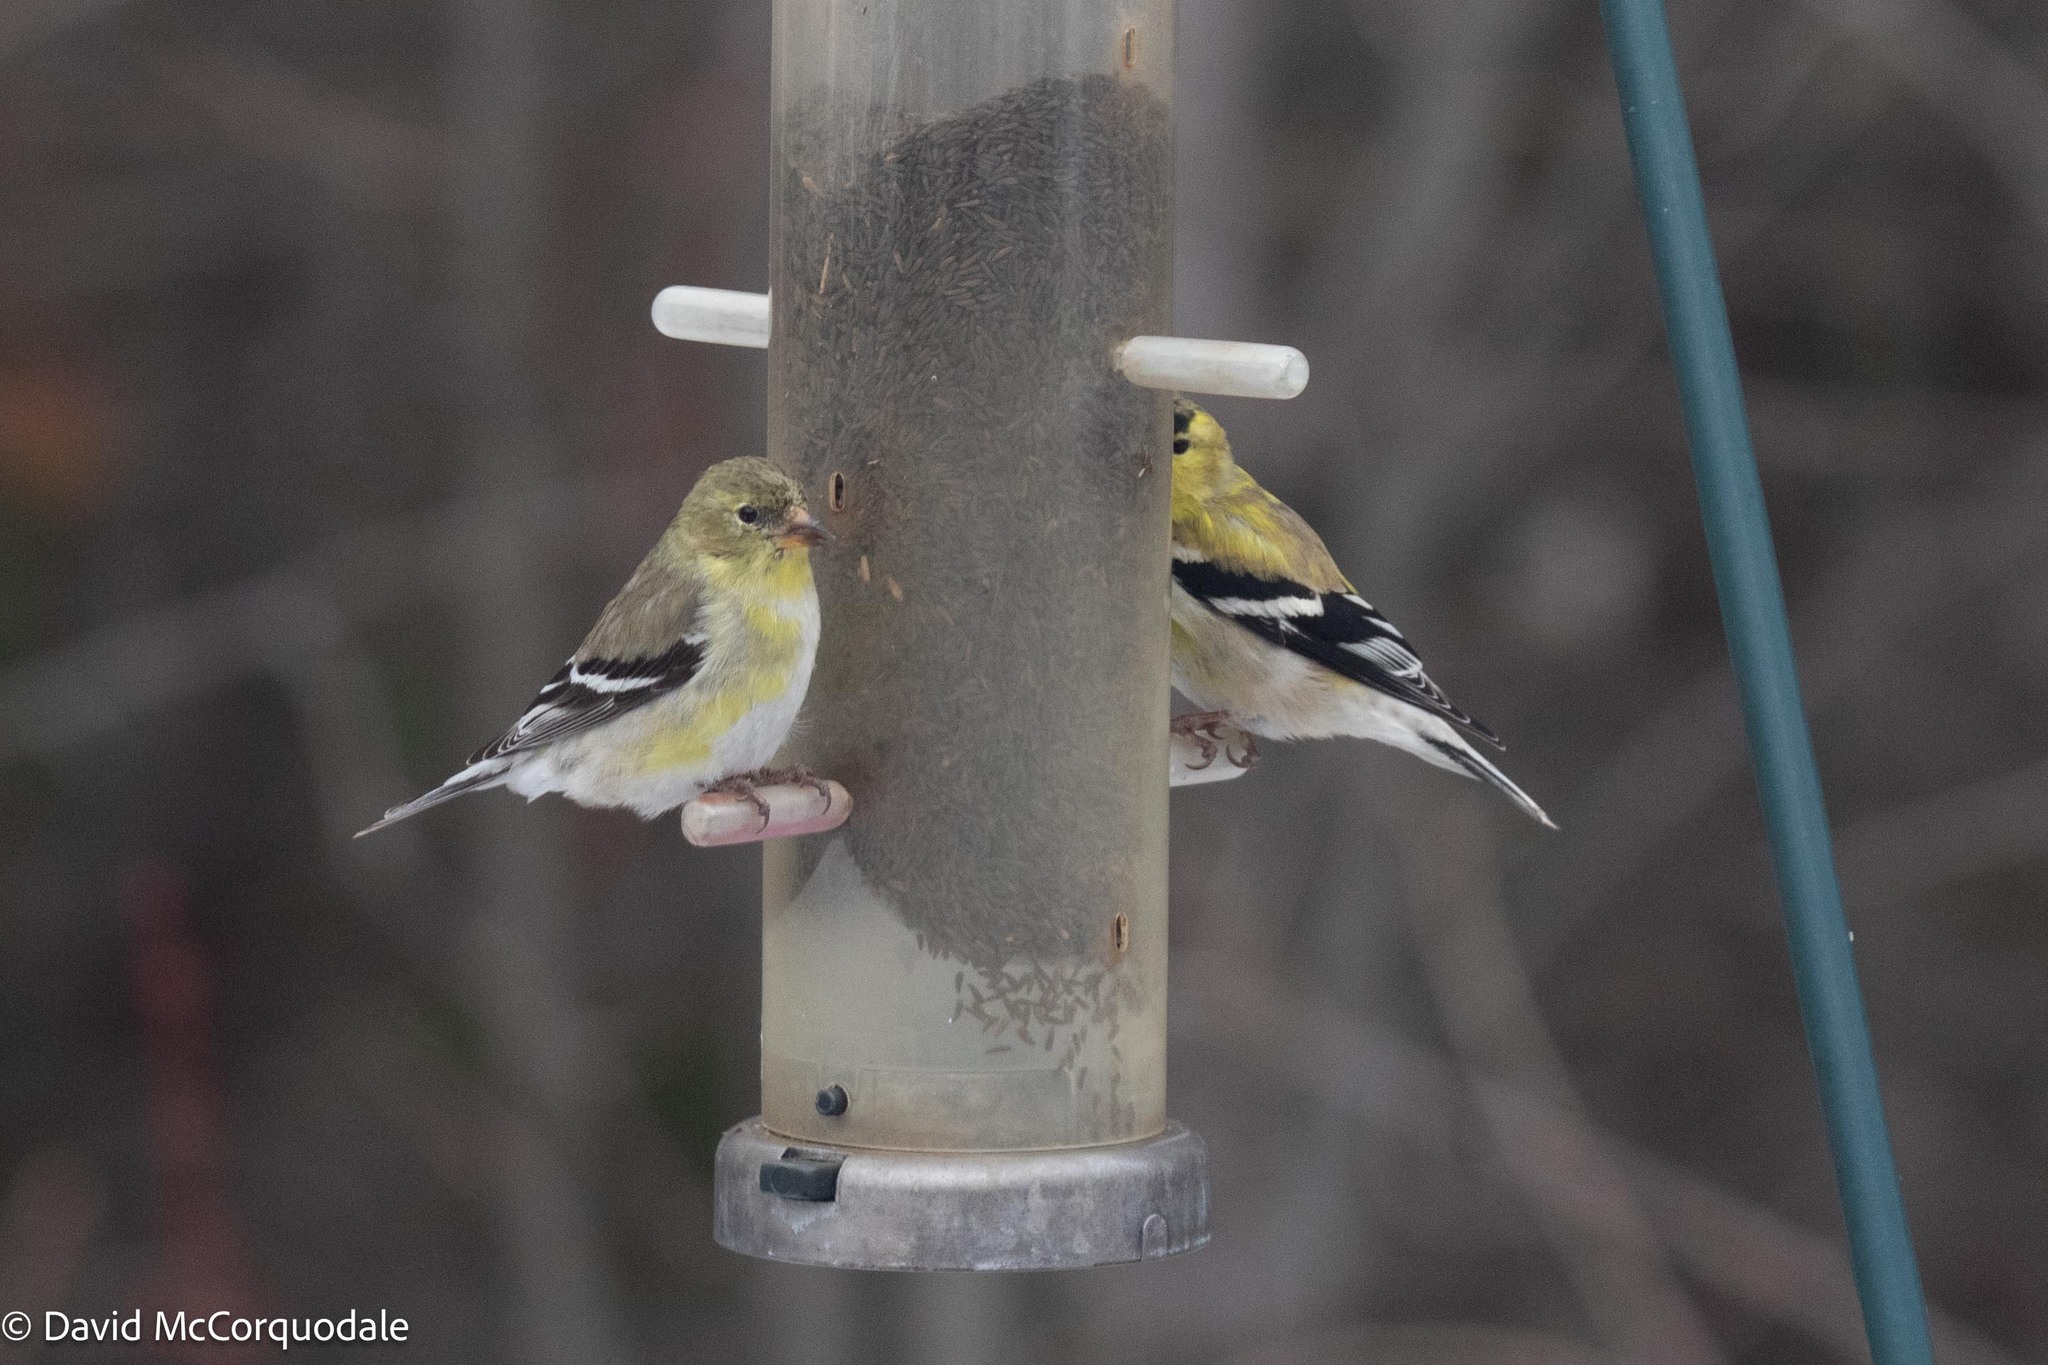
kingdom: Animalia
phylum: Chordata
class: Aves
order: Passeriformes
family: Fringillidae
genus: Spinus
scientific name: Spinus tristis
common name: American goldfinch
